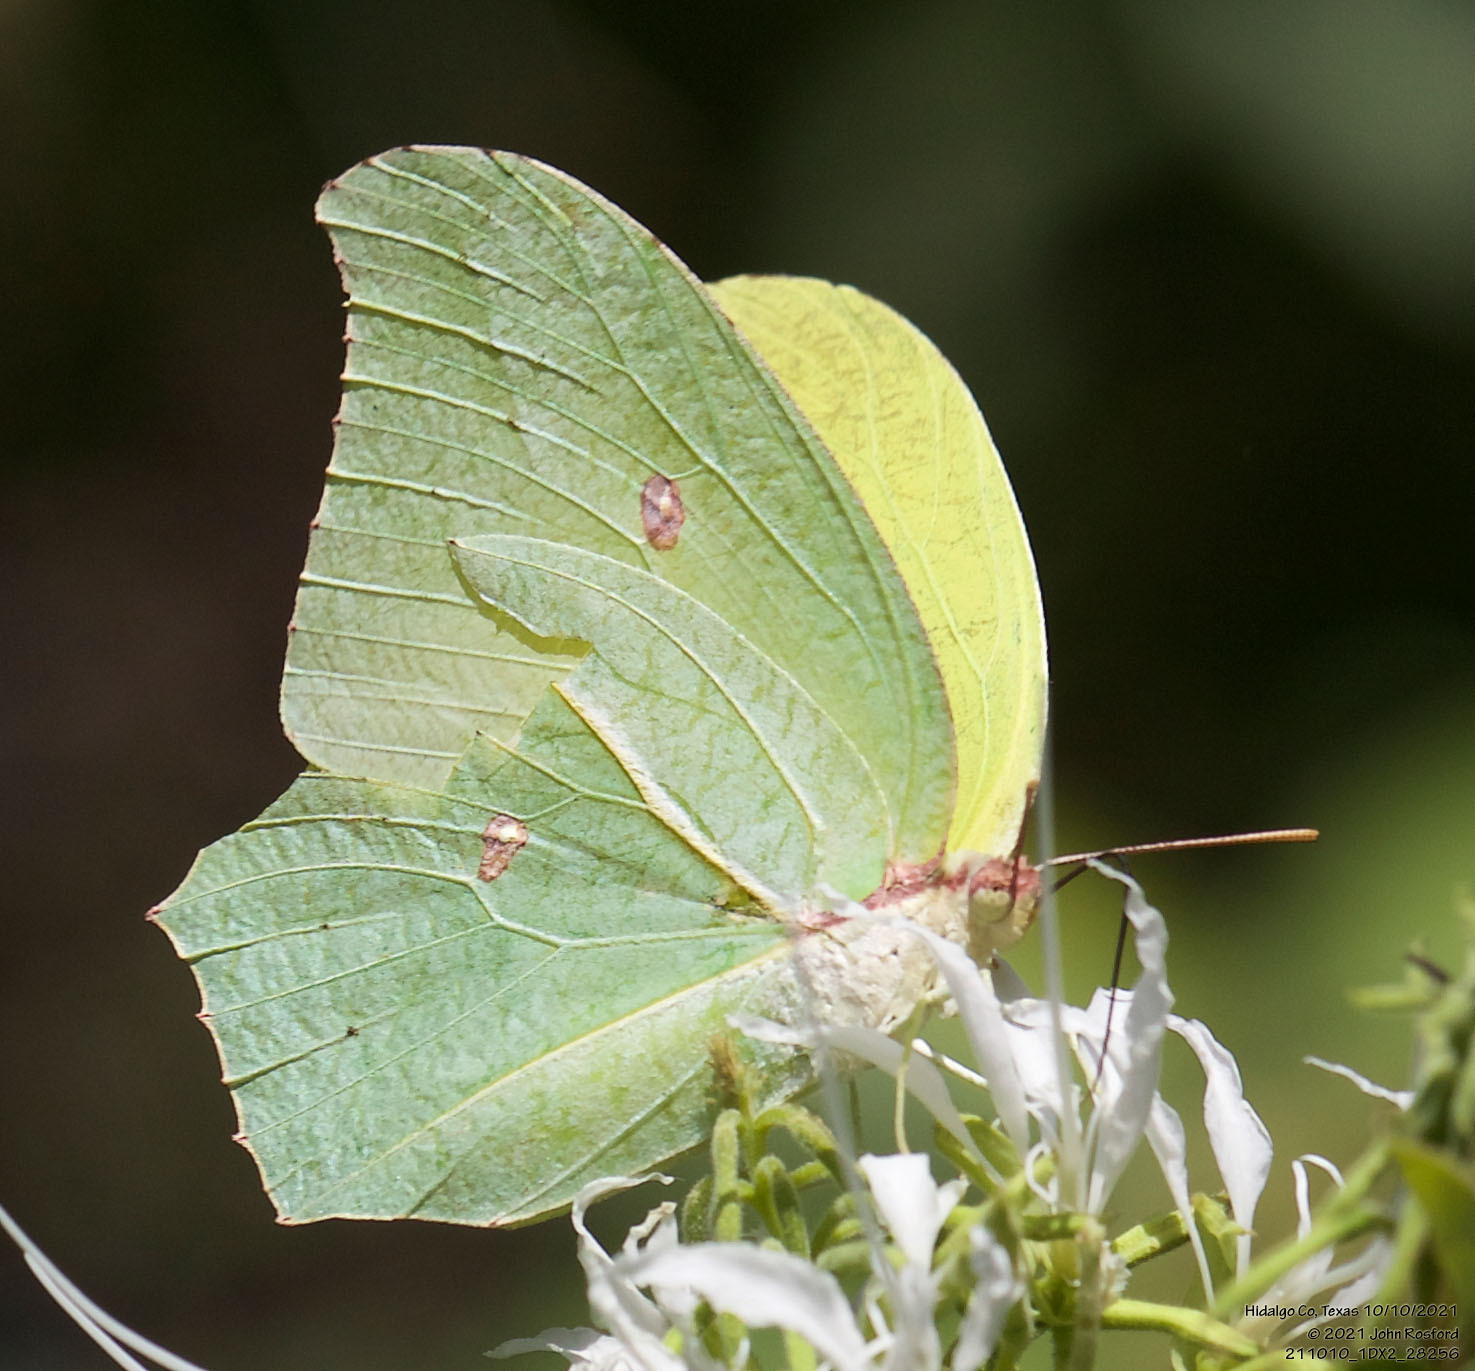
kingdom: Animalia
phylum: Arthropoda
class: Insecta
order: Lepidoptera
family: Pieridae
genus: Anteos
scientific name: Anteos maerula
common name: Angled sulphur
